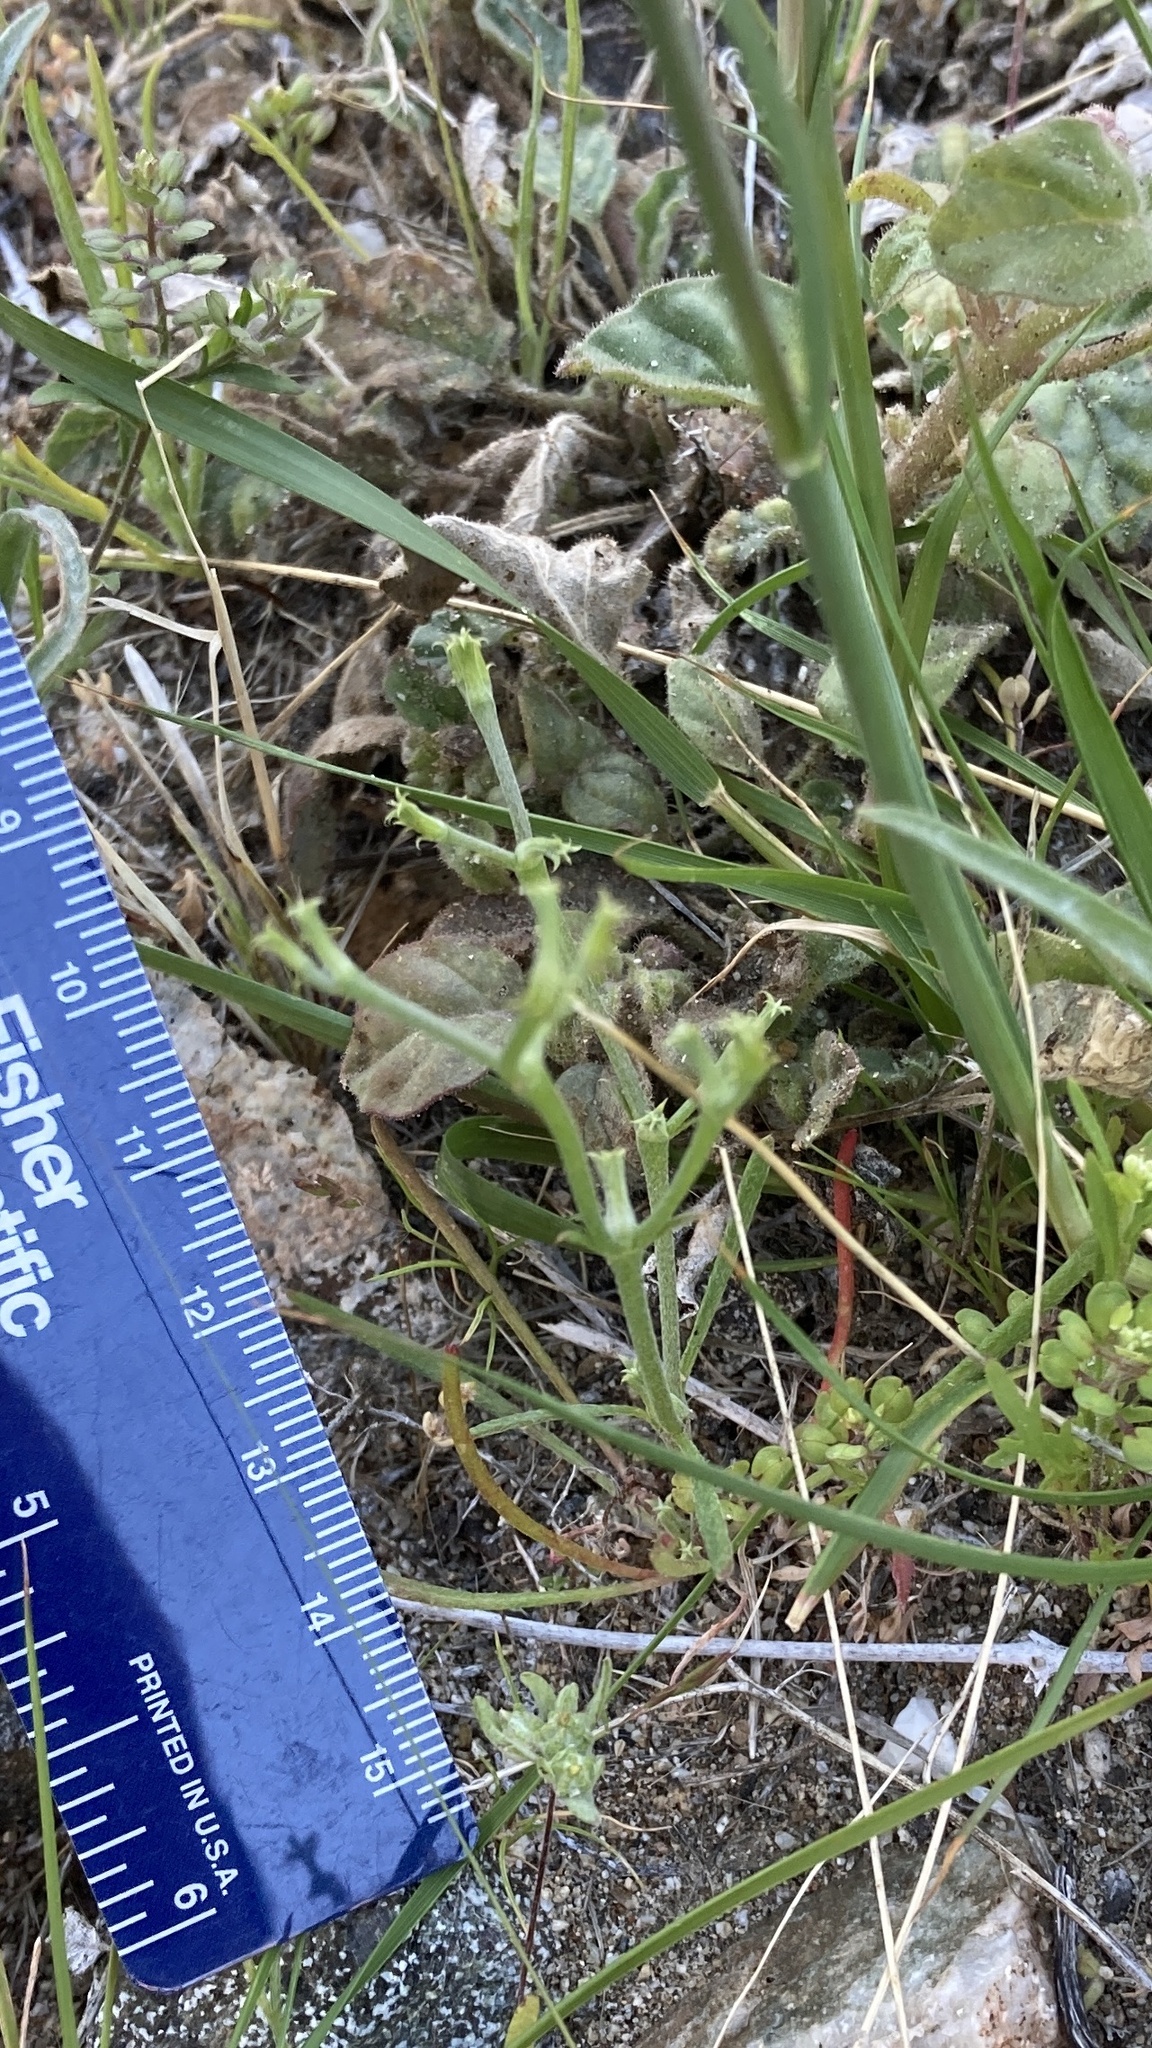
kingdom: Plantae
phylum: Tracheophyta
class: Magnoliopsida
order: Caryophyllales
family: Polygonaceae
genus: Chorizanthe
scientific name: Chorizanthe brevicornu
